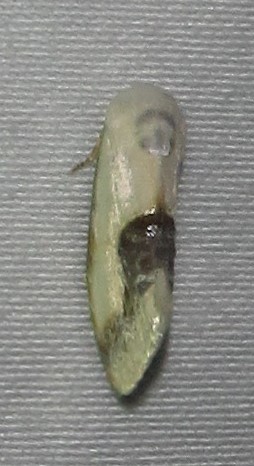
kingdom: Animalia
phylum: Arthropoda
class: Insecta
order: Lepidoptera
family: Nolidae
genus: Negeta
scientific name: Negeta luminosa
